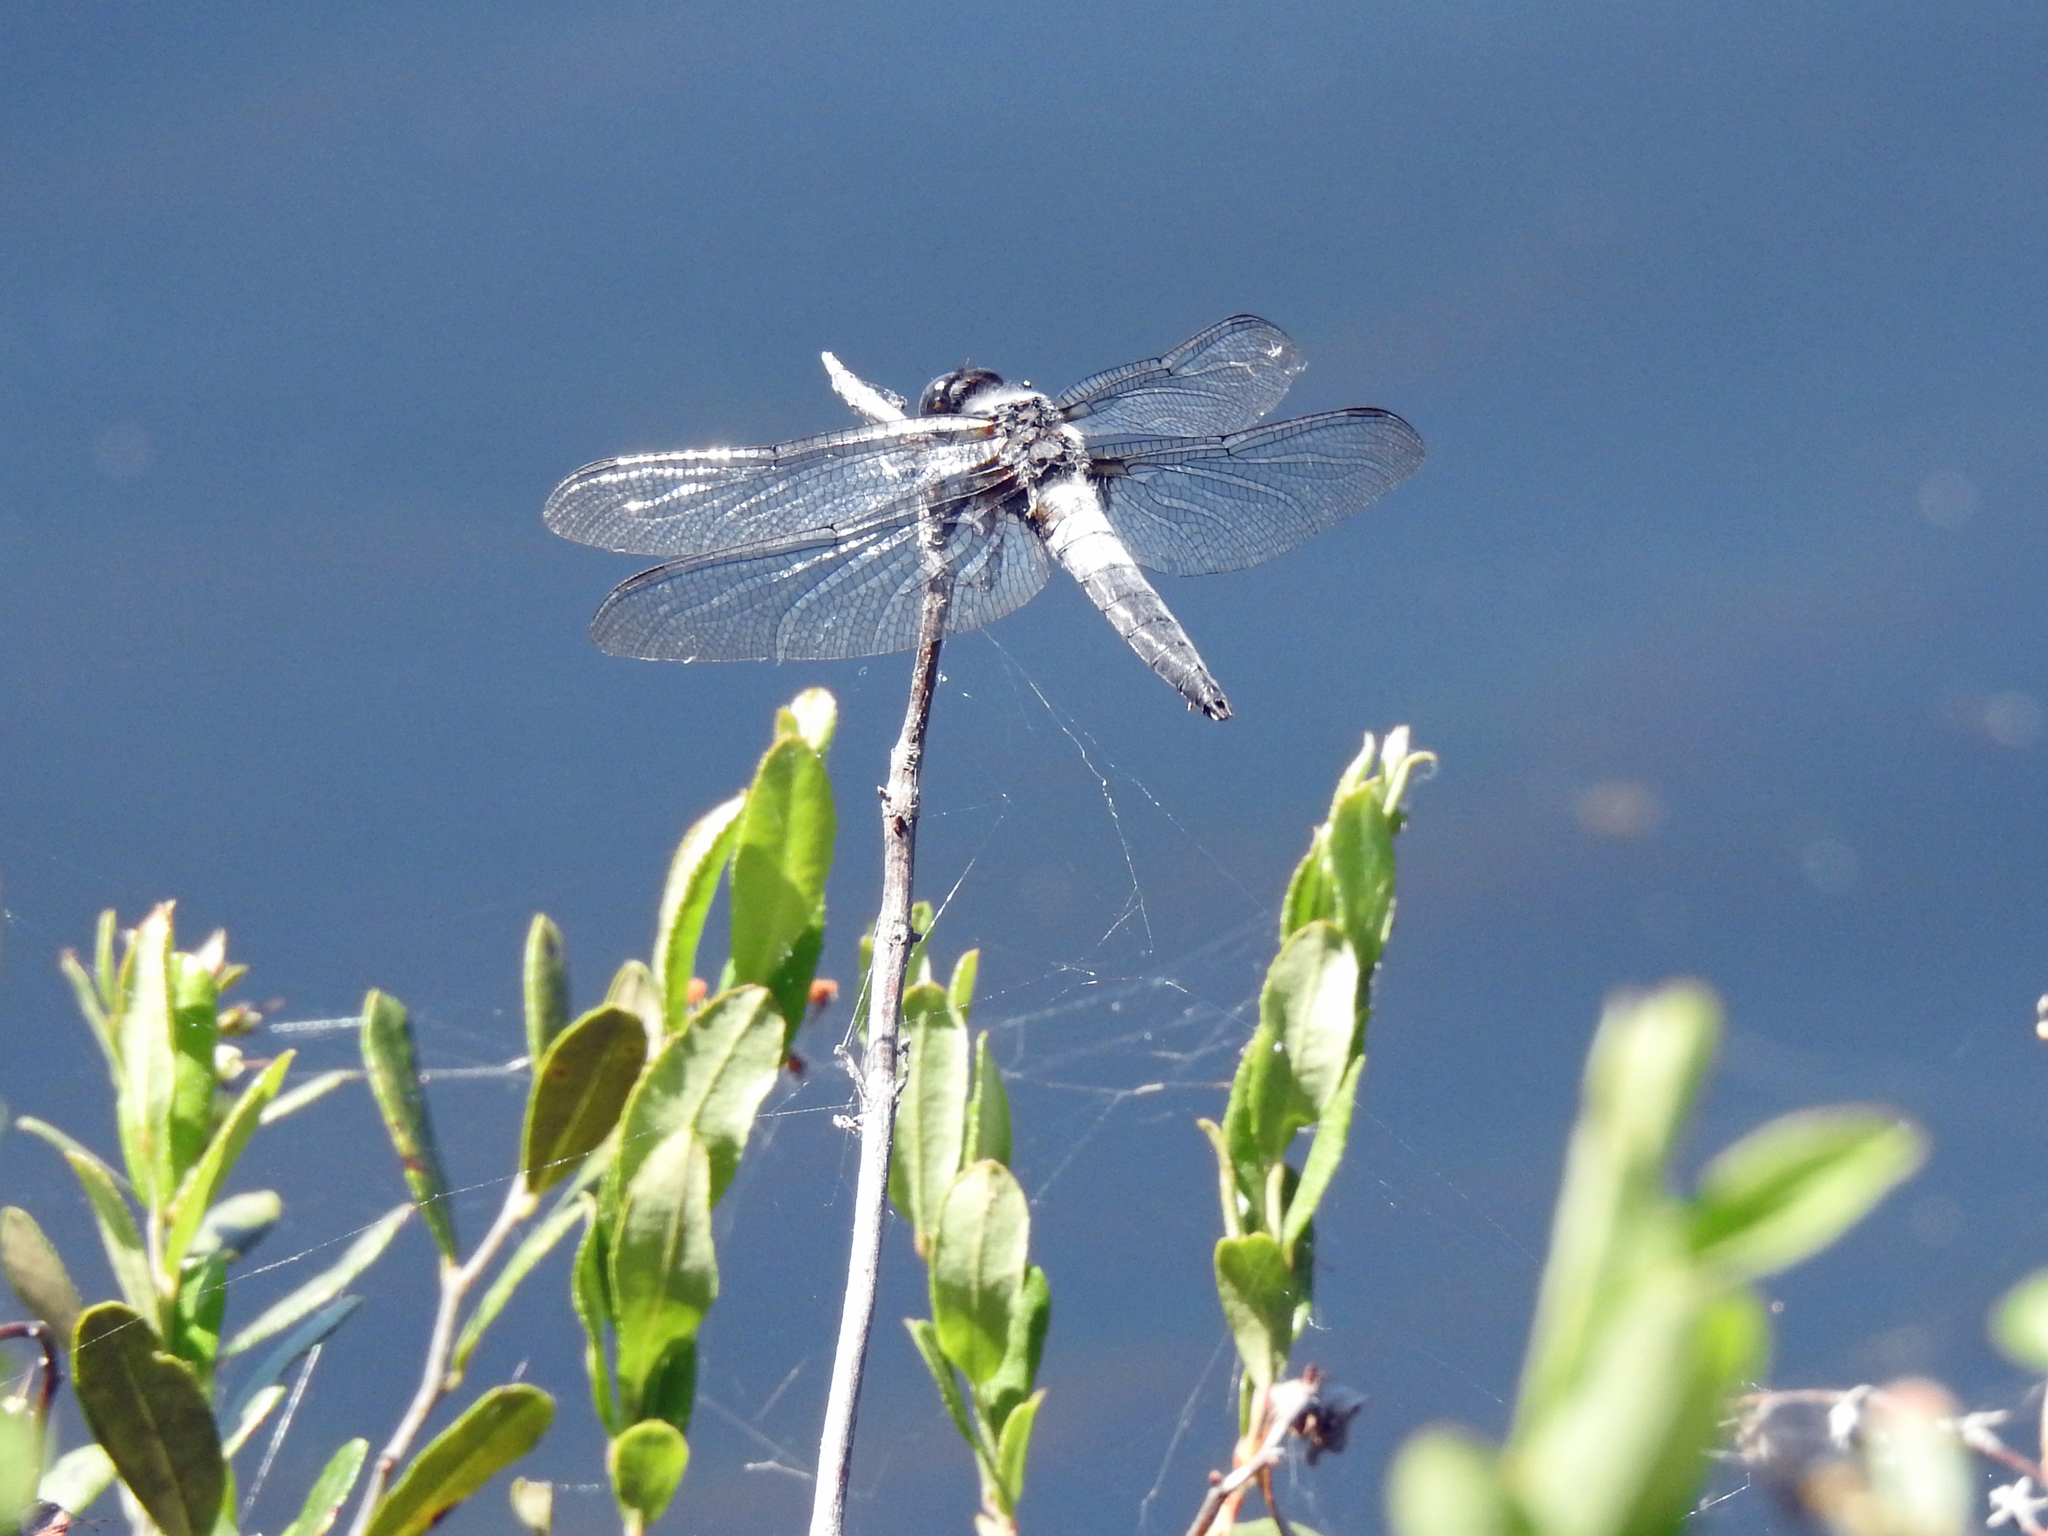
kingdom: Animalia
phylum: Arthropoda
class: Insecta
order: Odonata
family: Libellulidae
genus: Ladona
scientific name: Ladona julia
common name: Chalk-fronted corporal
